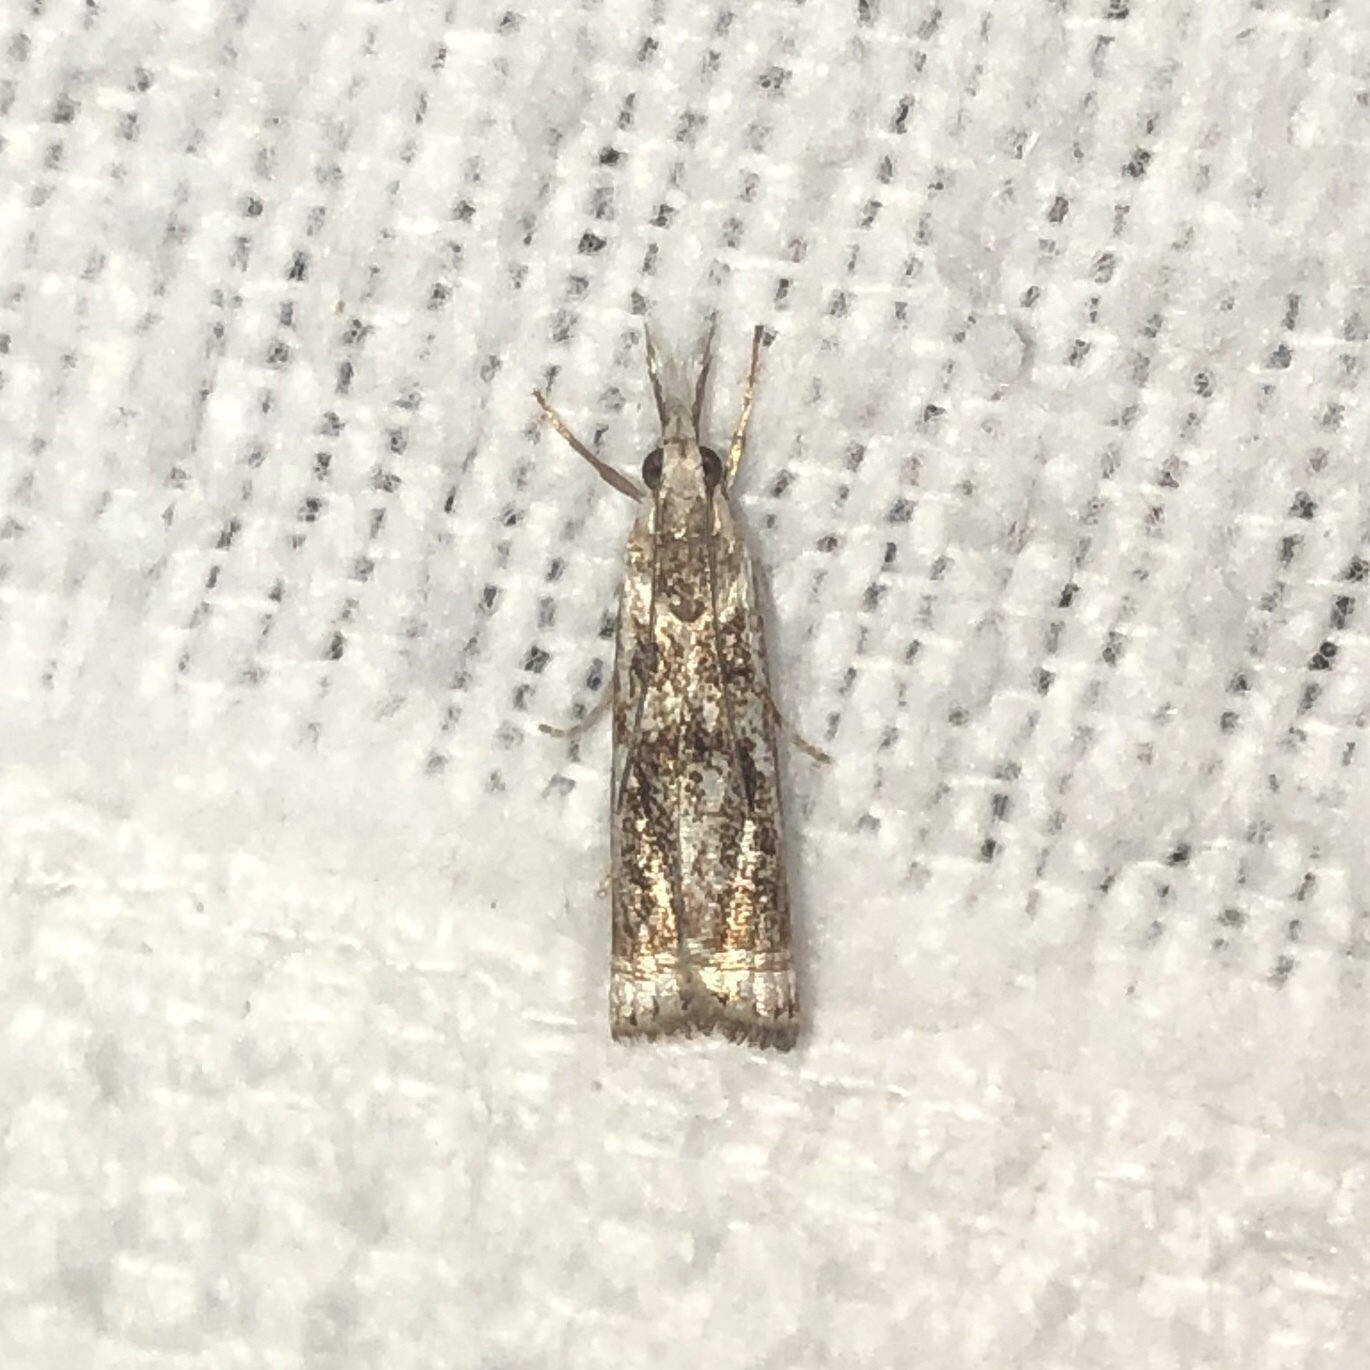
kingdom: Animalia
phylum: Arthropoda
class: Insecta
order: Lepidoptera
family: Crambidae
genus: Microcrambus
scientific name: Microcrambus elegans
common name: Elegant grass-veneer
